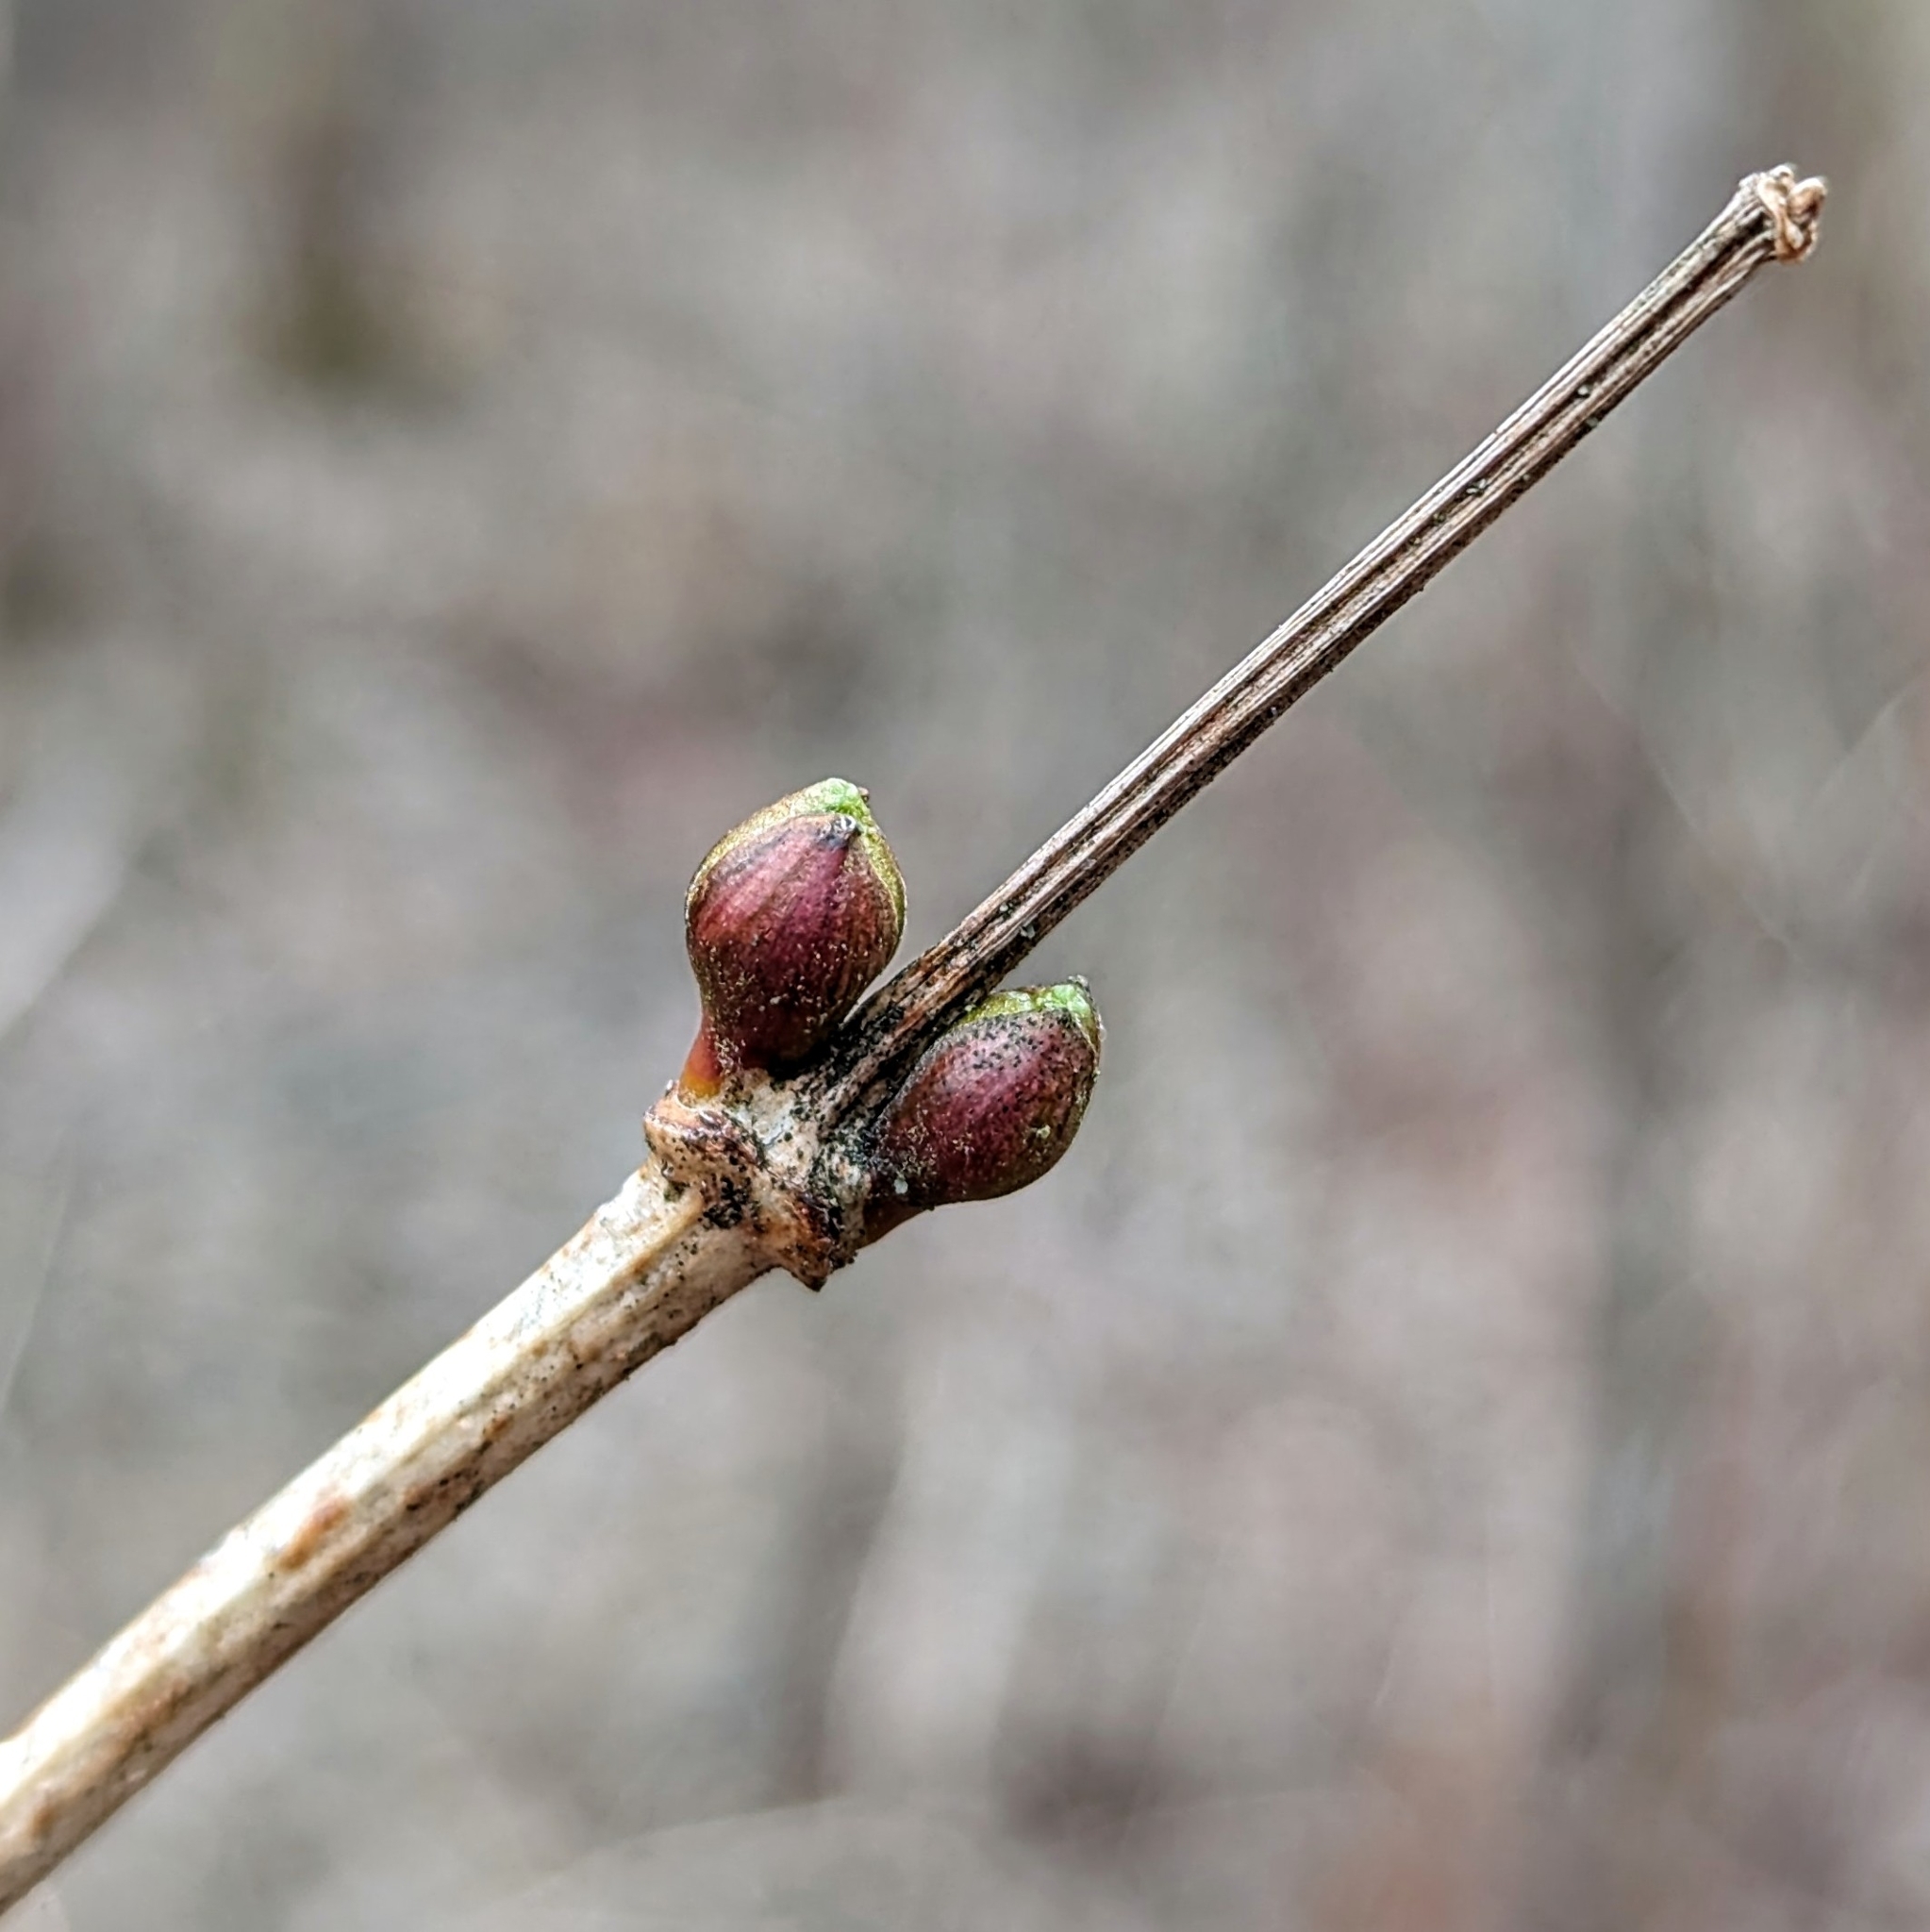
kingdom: Plantae
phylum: Tracheophyta
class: Magnoliopsida
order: Dipsacales
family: Viburnaceae
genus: Viburnum
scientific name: Viburnum opulus
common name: Guelder-rose
